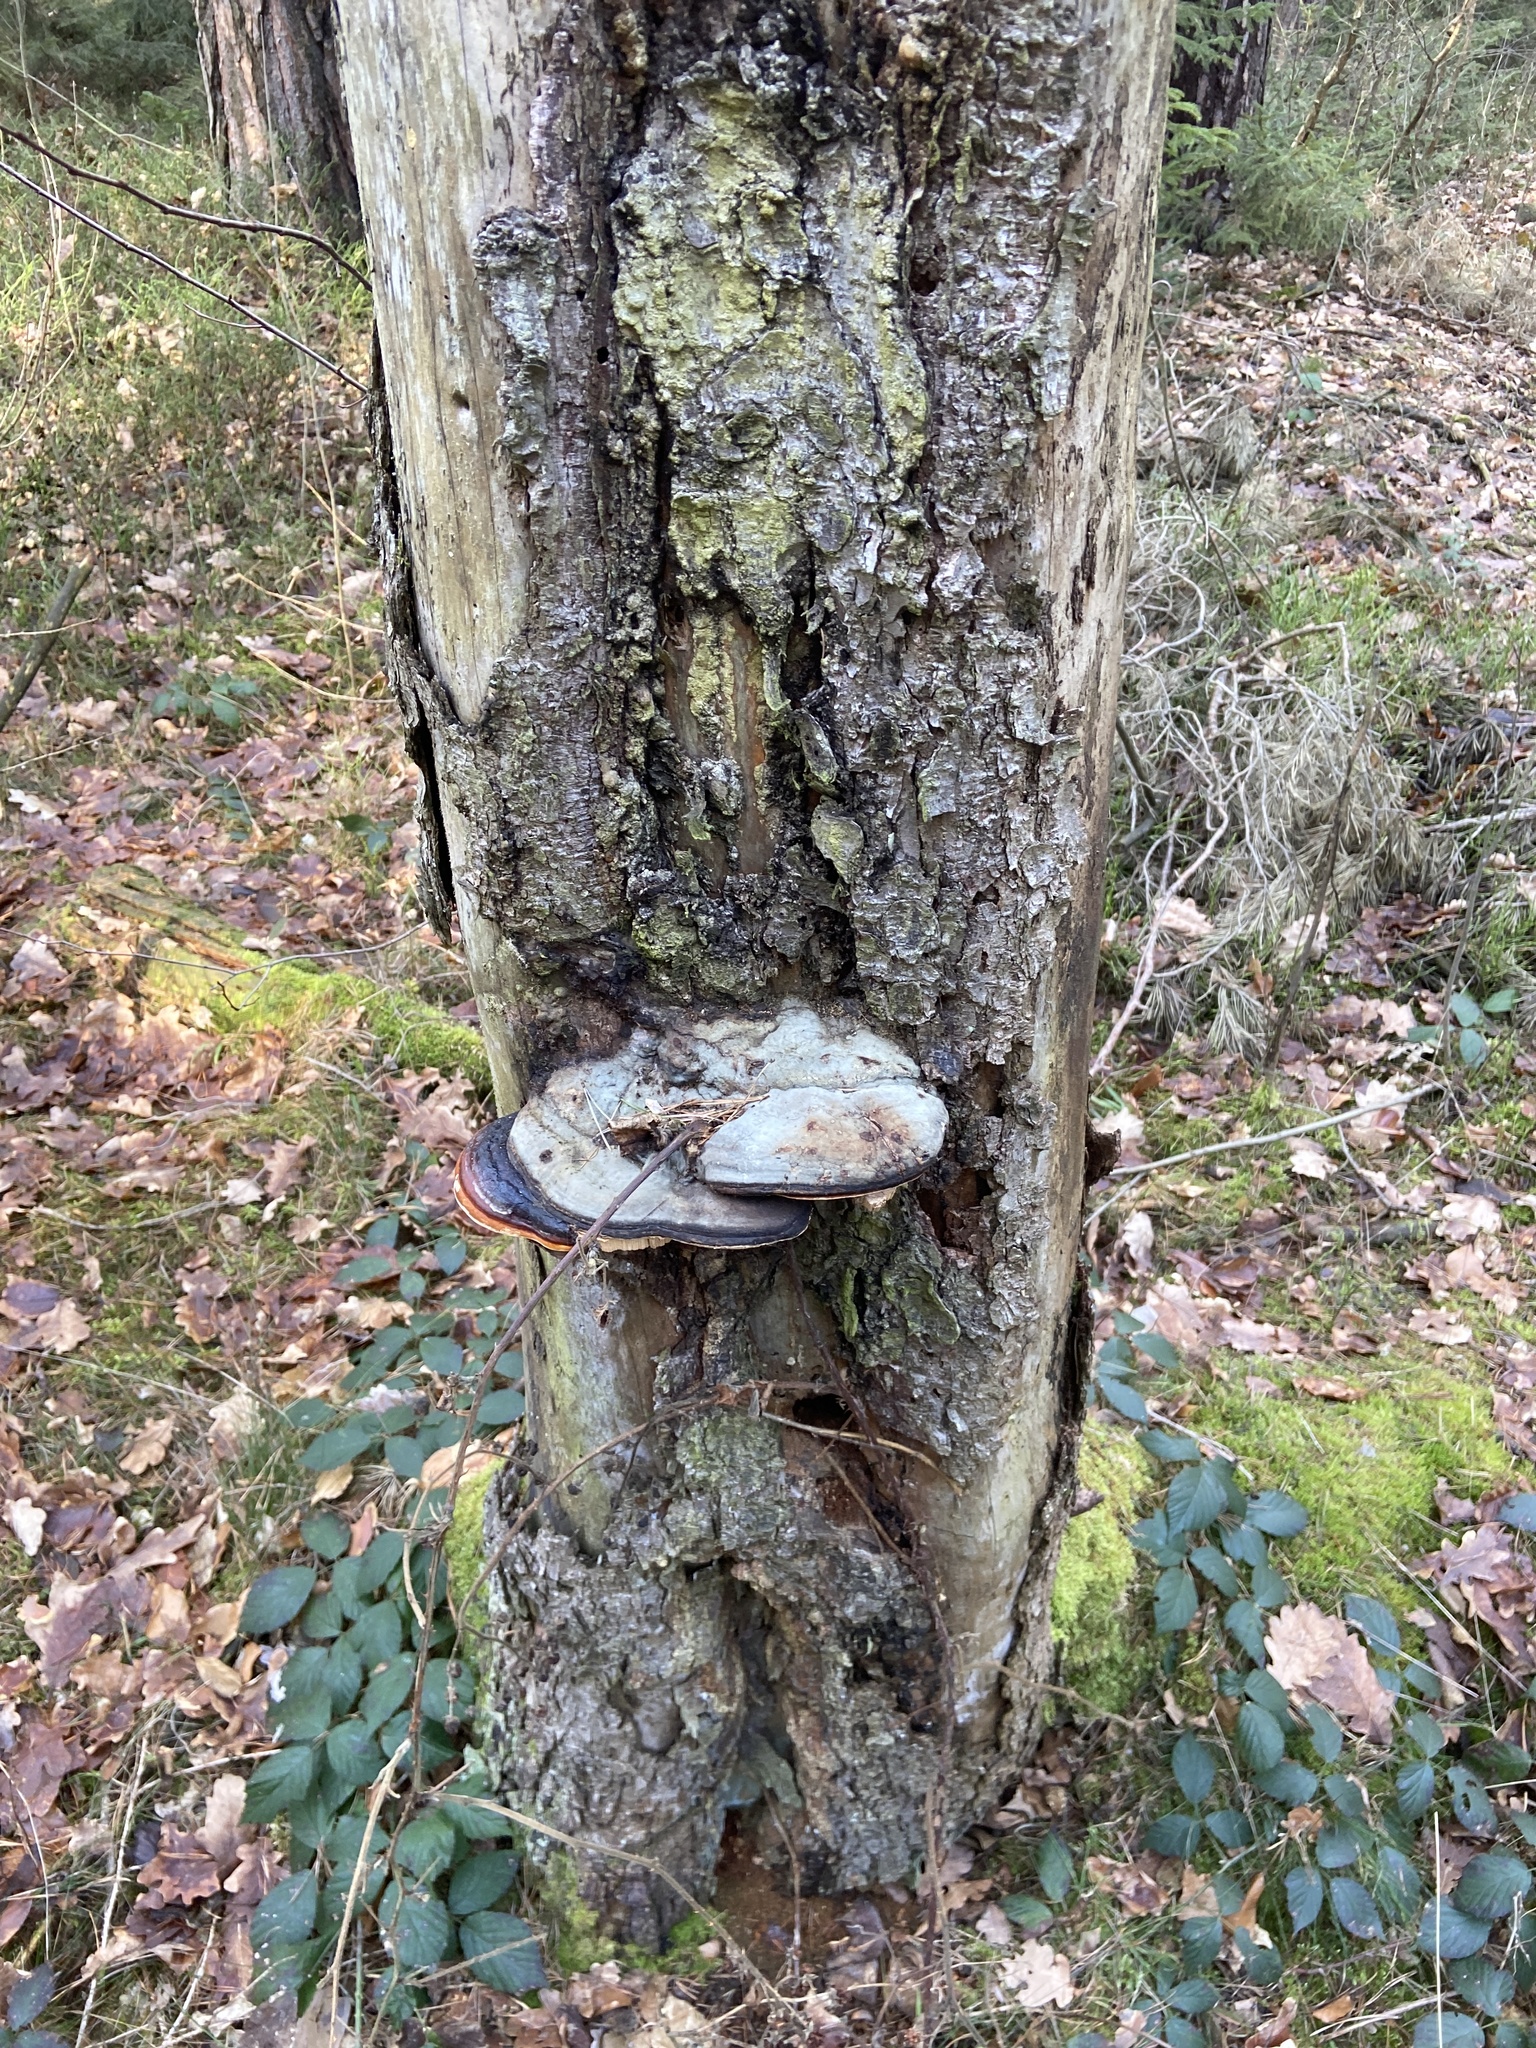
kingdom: Fungi
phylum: Basidiomycota
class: Agaricomycetes
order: Hymenochaetales
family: Hymenochaetaceae
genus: Phellinus
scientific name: Phellinus igniarius
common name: Willow bracket
